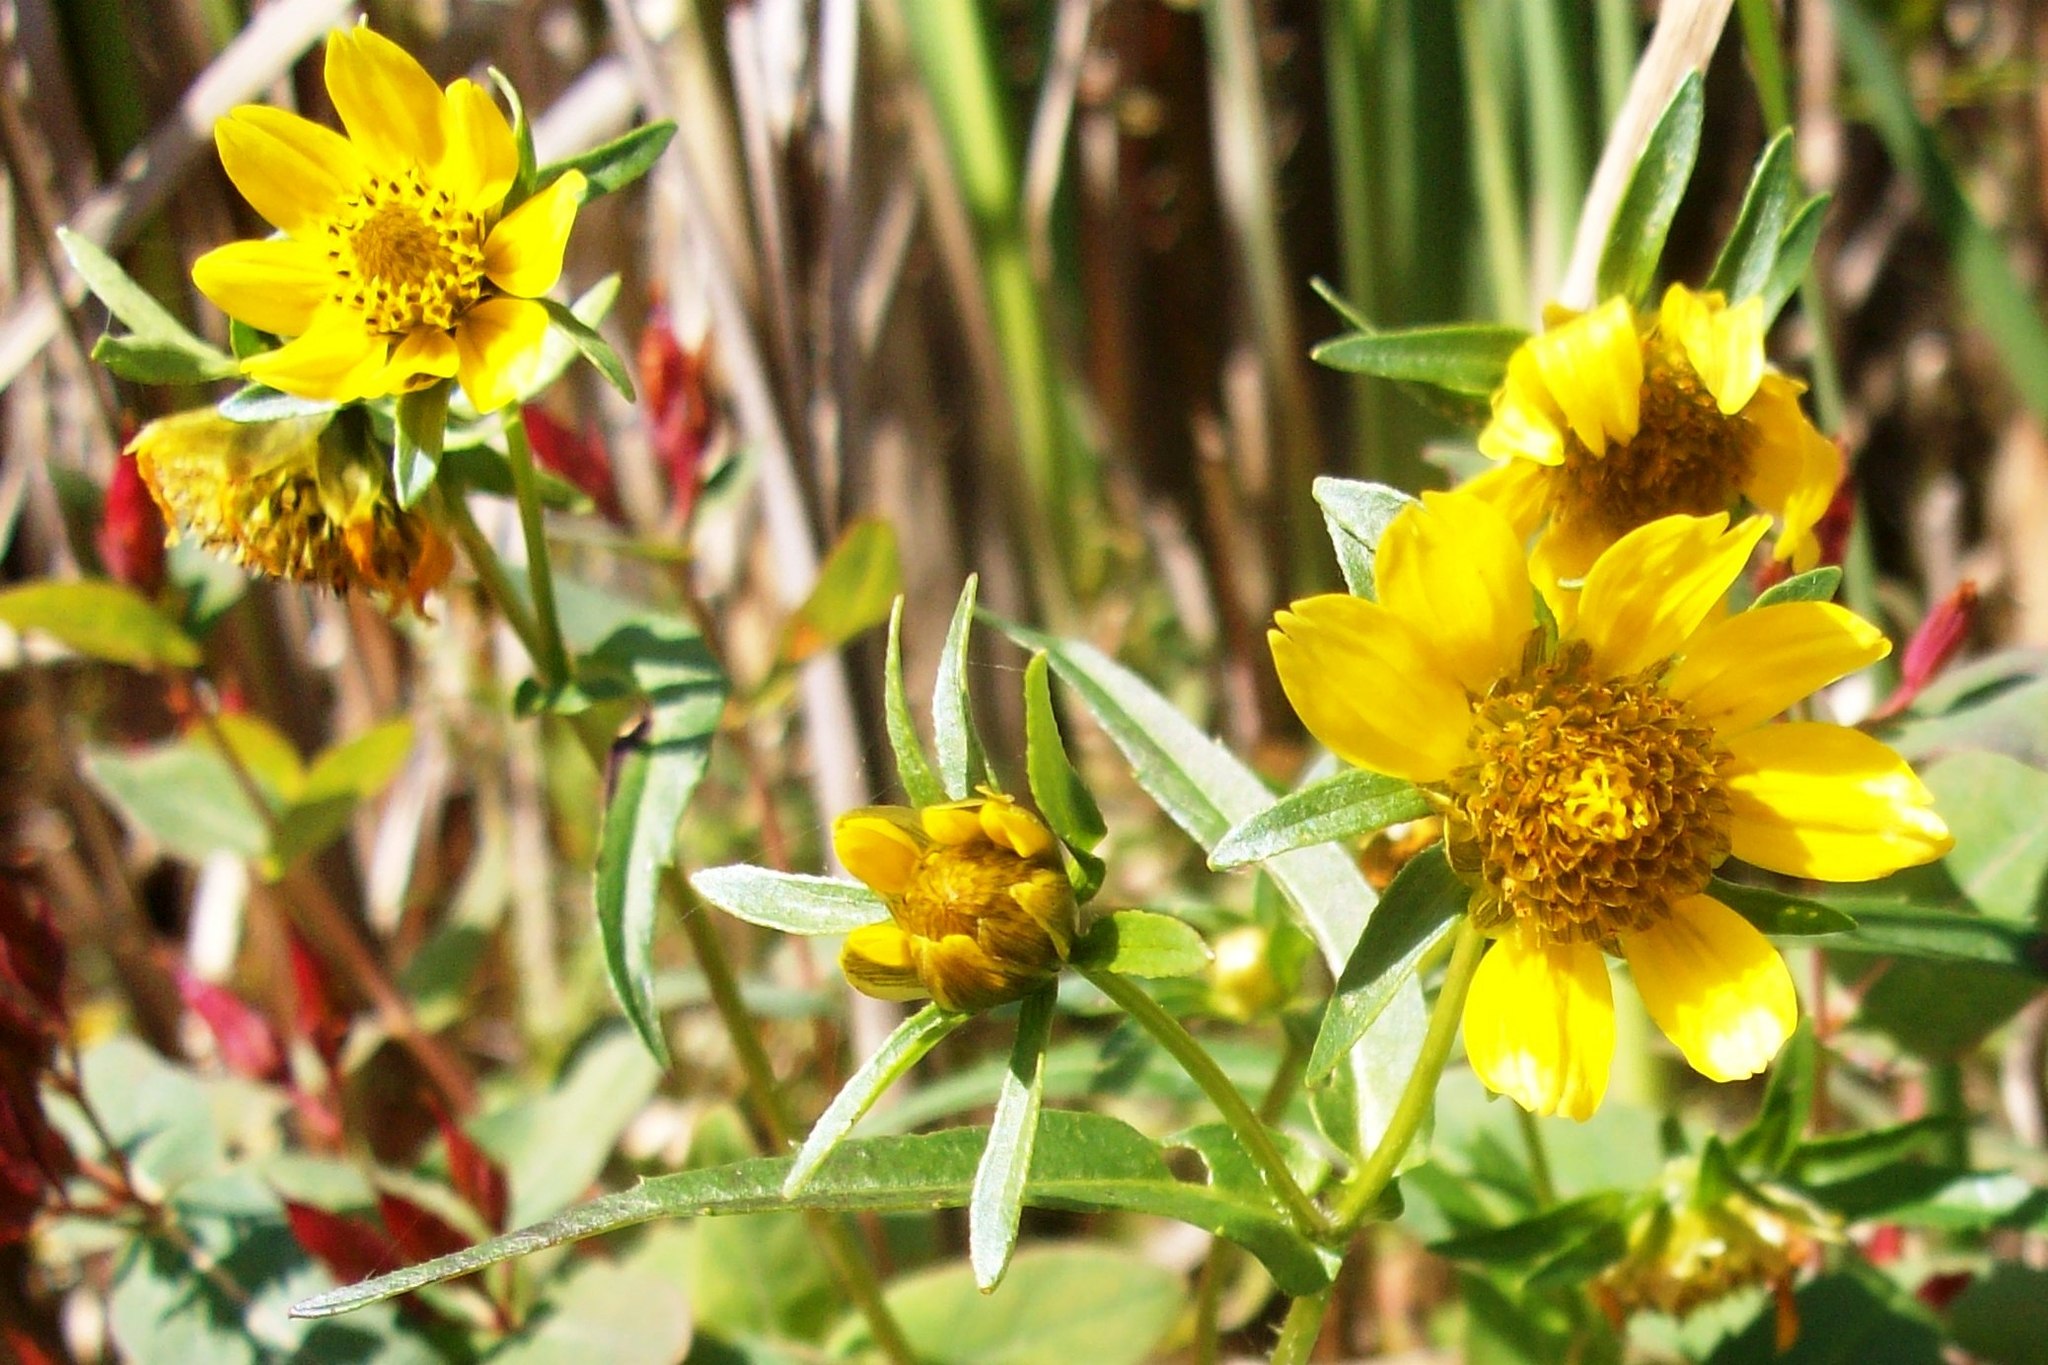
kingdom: Plantae
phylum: Tracheophyta
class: Magnoliopsida
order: Asterales
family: Asteraceae
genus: Bidens
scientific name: Bidens cernua
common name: Nodding bur-marigold
